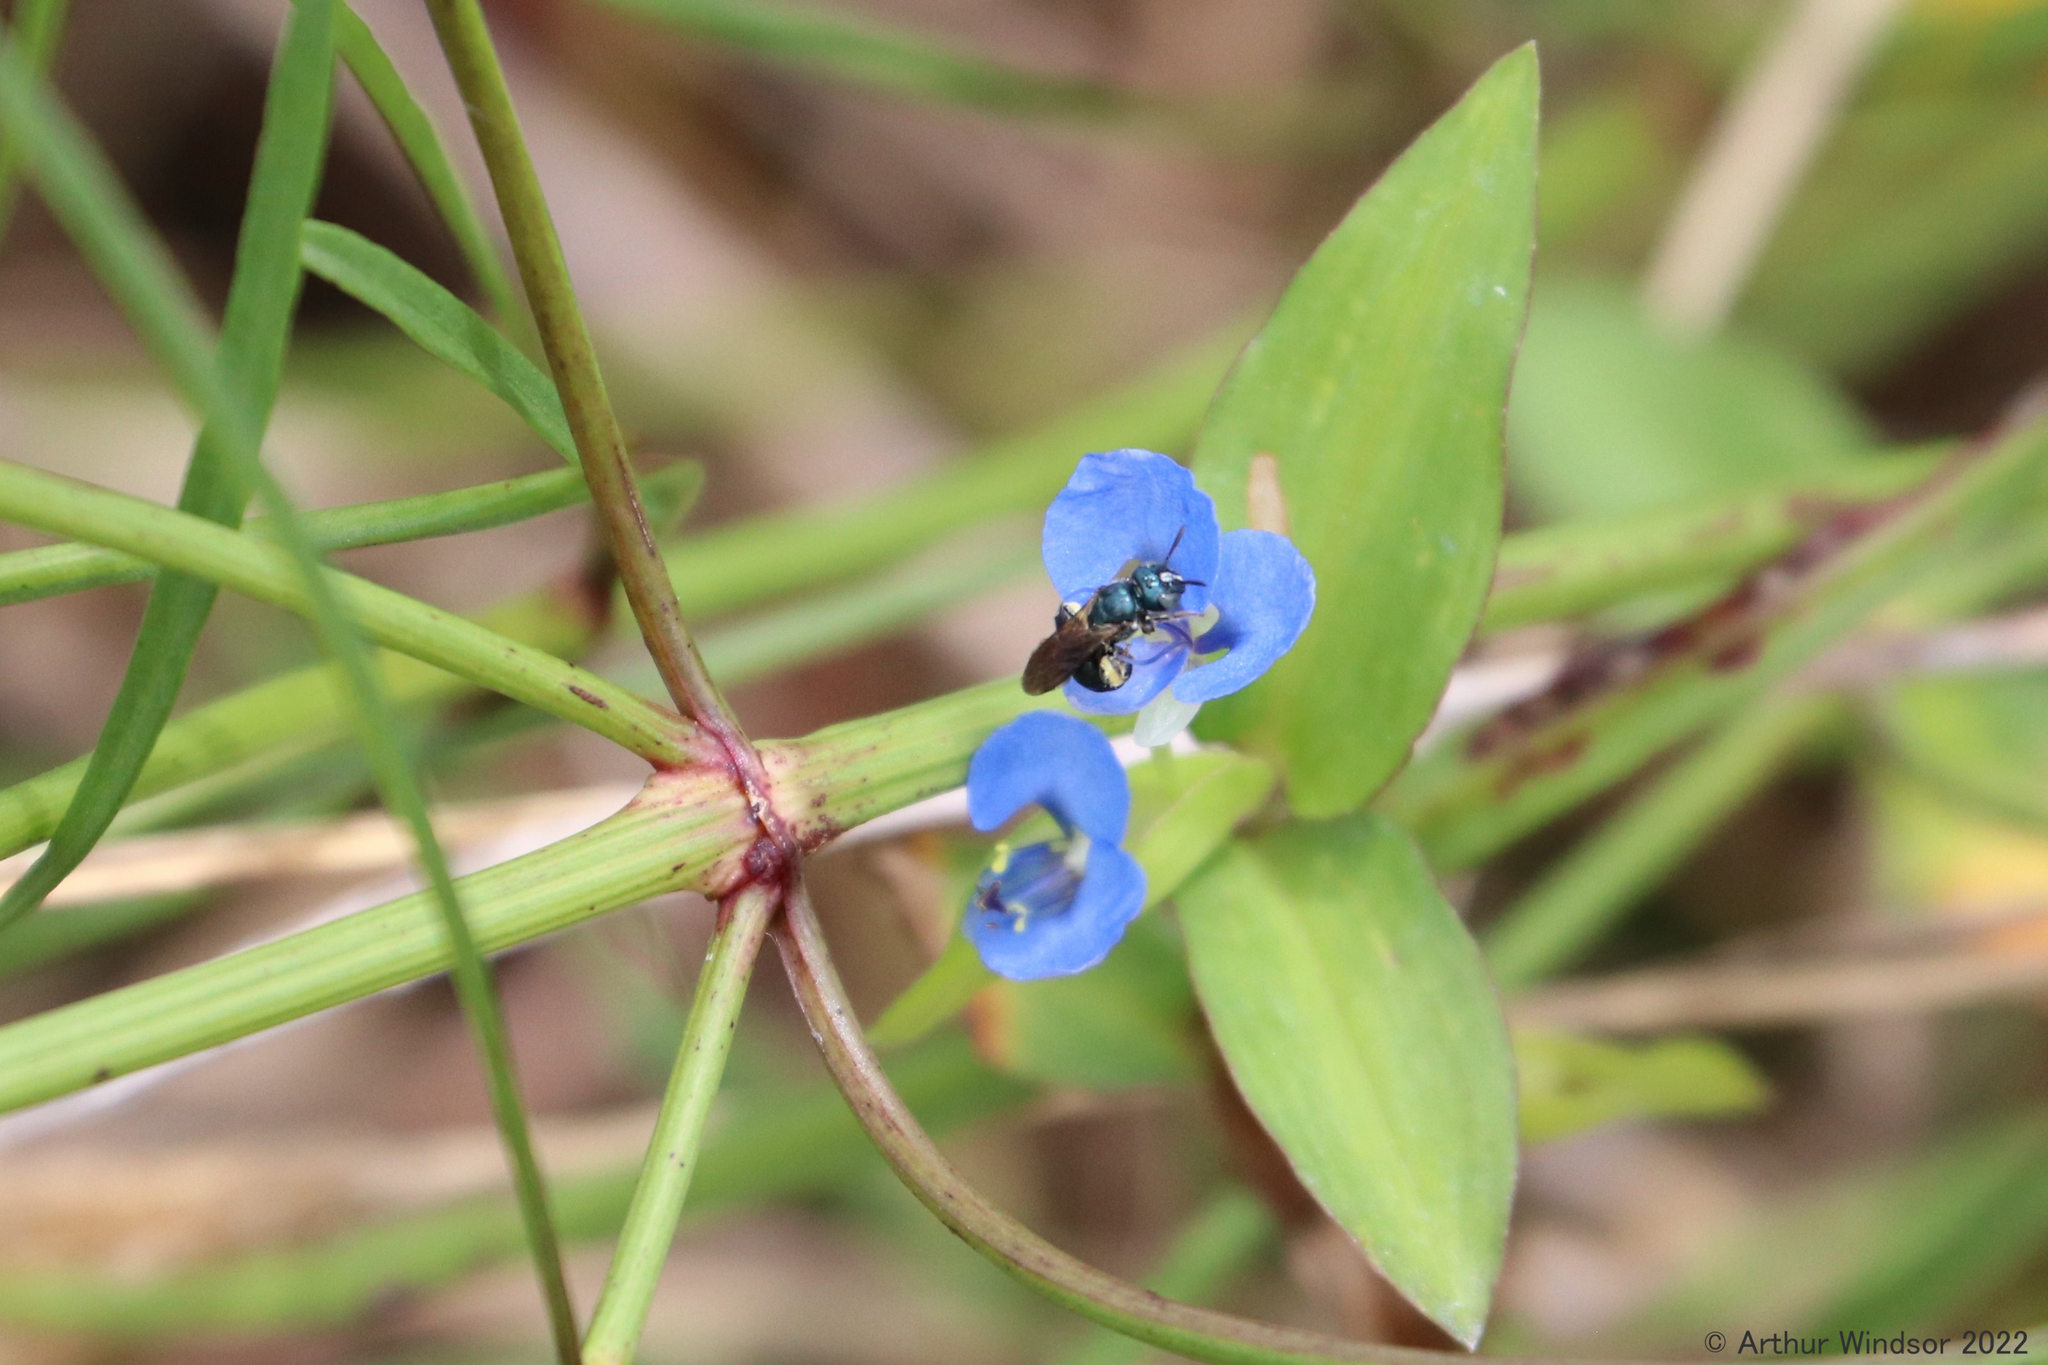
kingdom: Animalia
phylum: Arthropoda
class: Insecta
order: Hymenoptera
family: Apidae
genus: Ceratina
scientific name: Ceratina floridana
